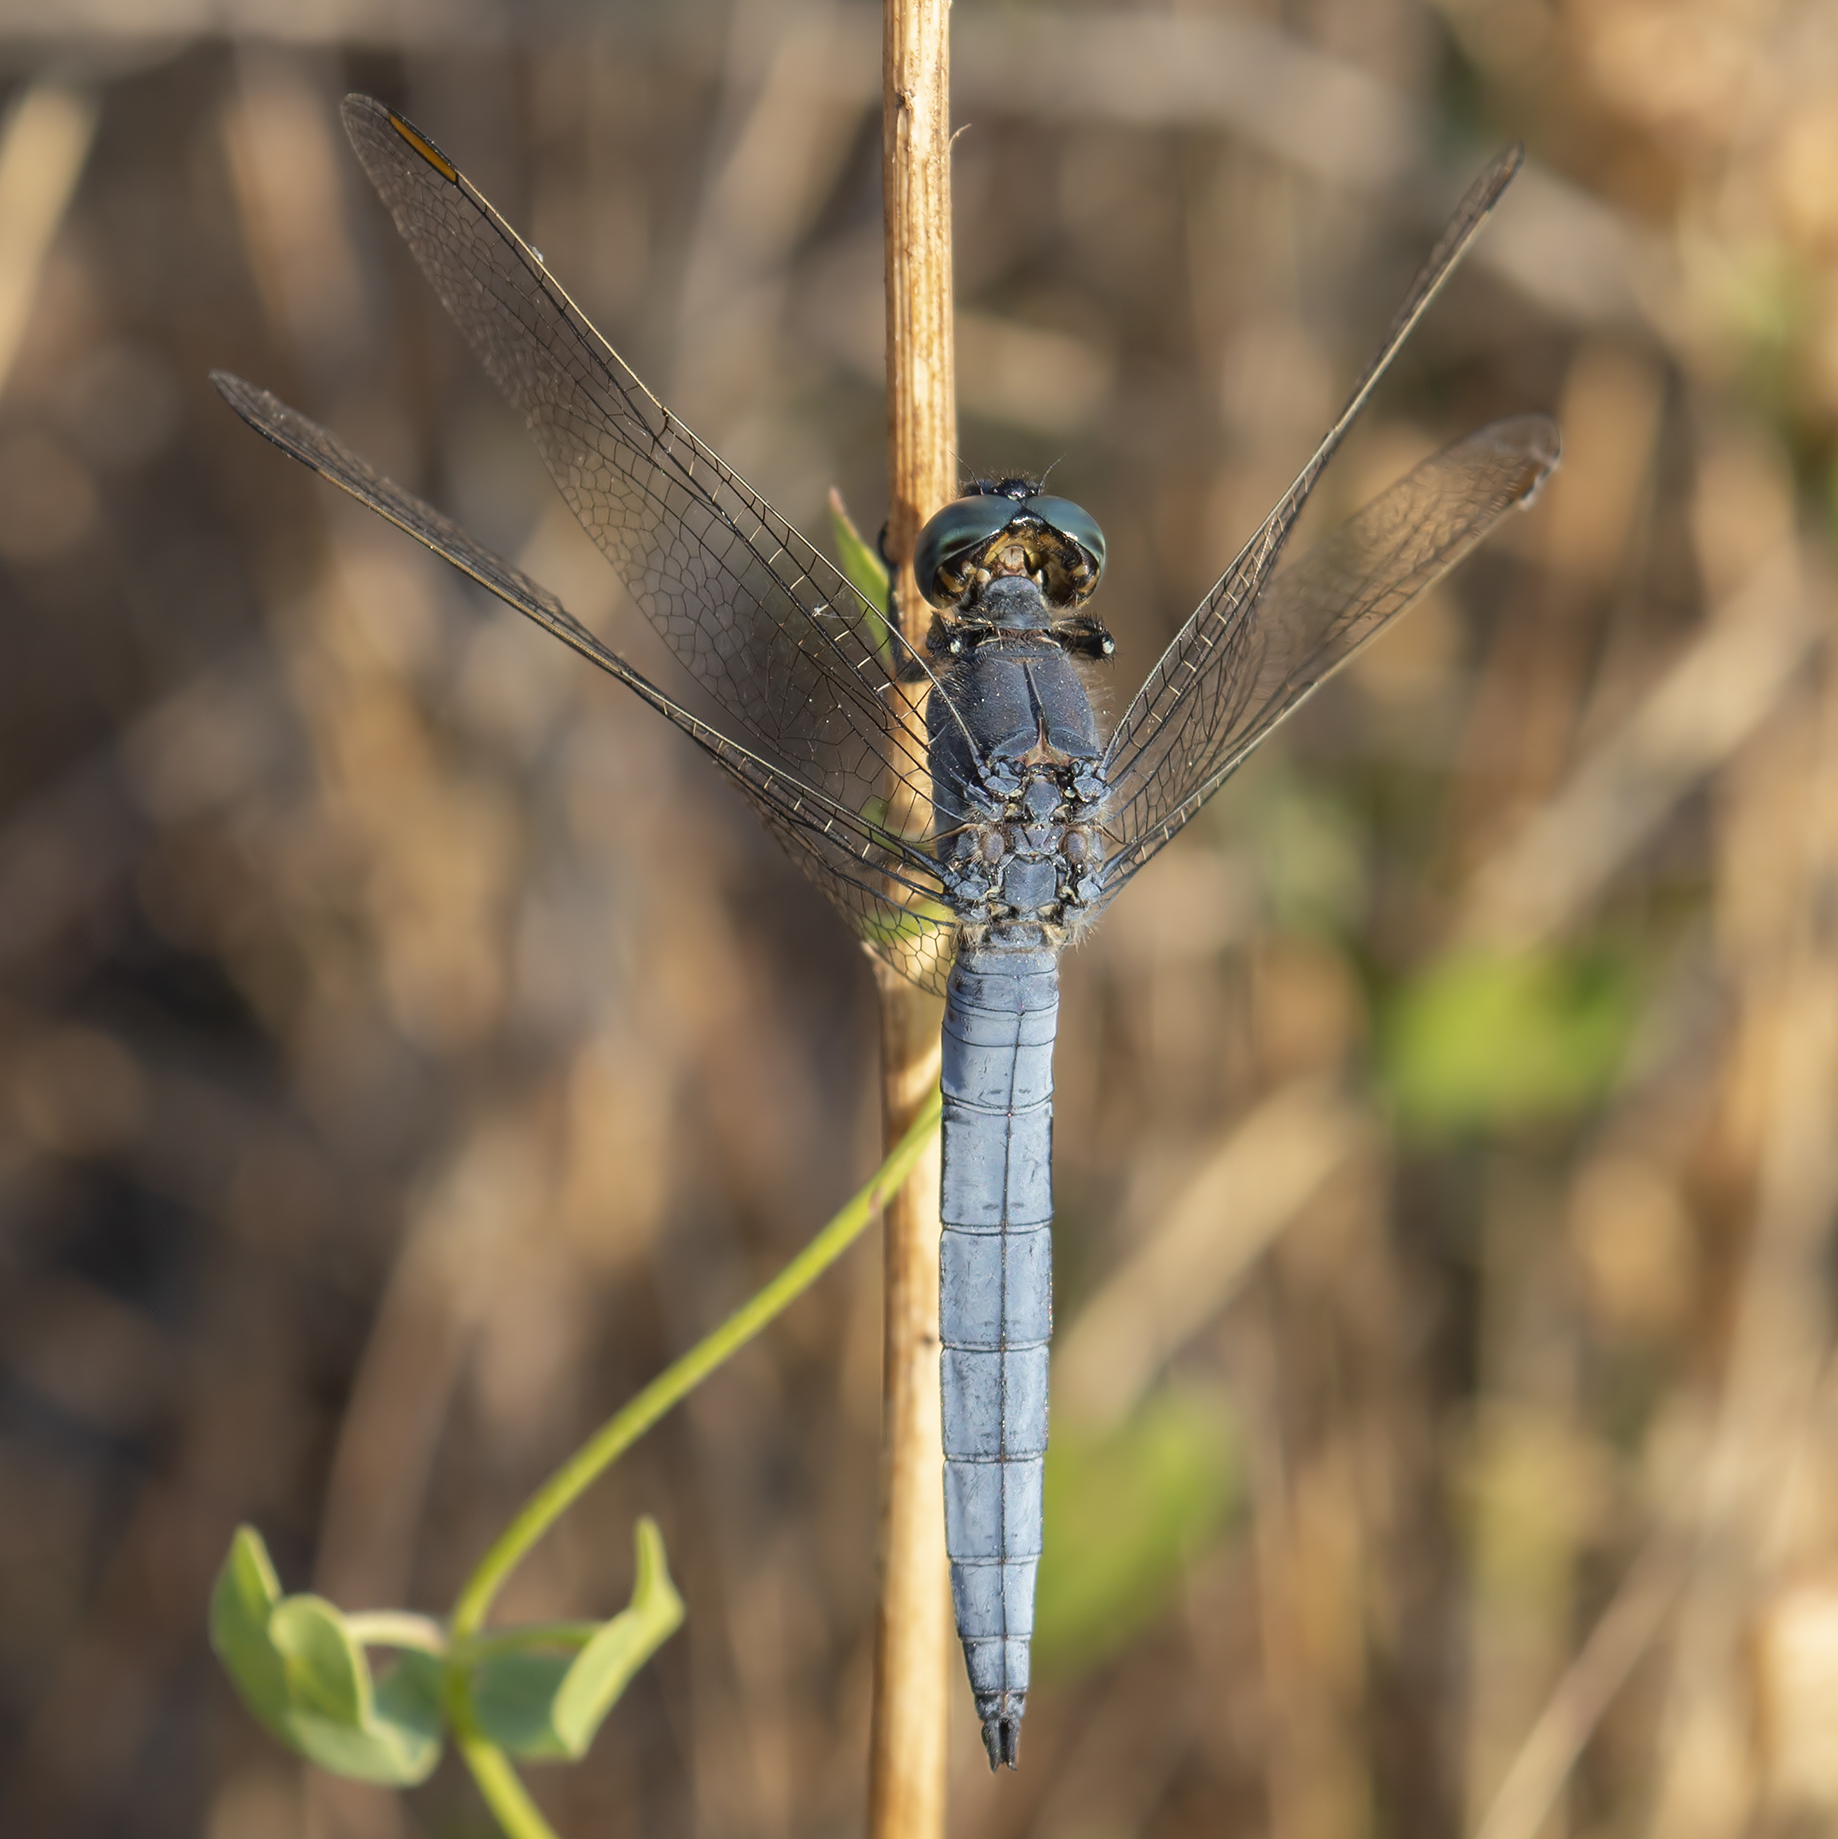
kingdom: Animalia
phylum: Arthropoda
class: Insecta
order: Odonata
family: Libellulidae
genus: Orthetrum
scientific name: Orthetrum coerulescens
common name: Keeled skimmer
